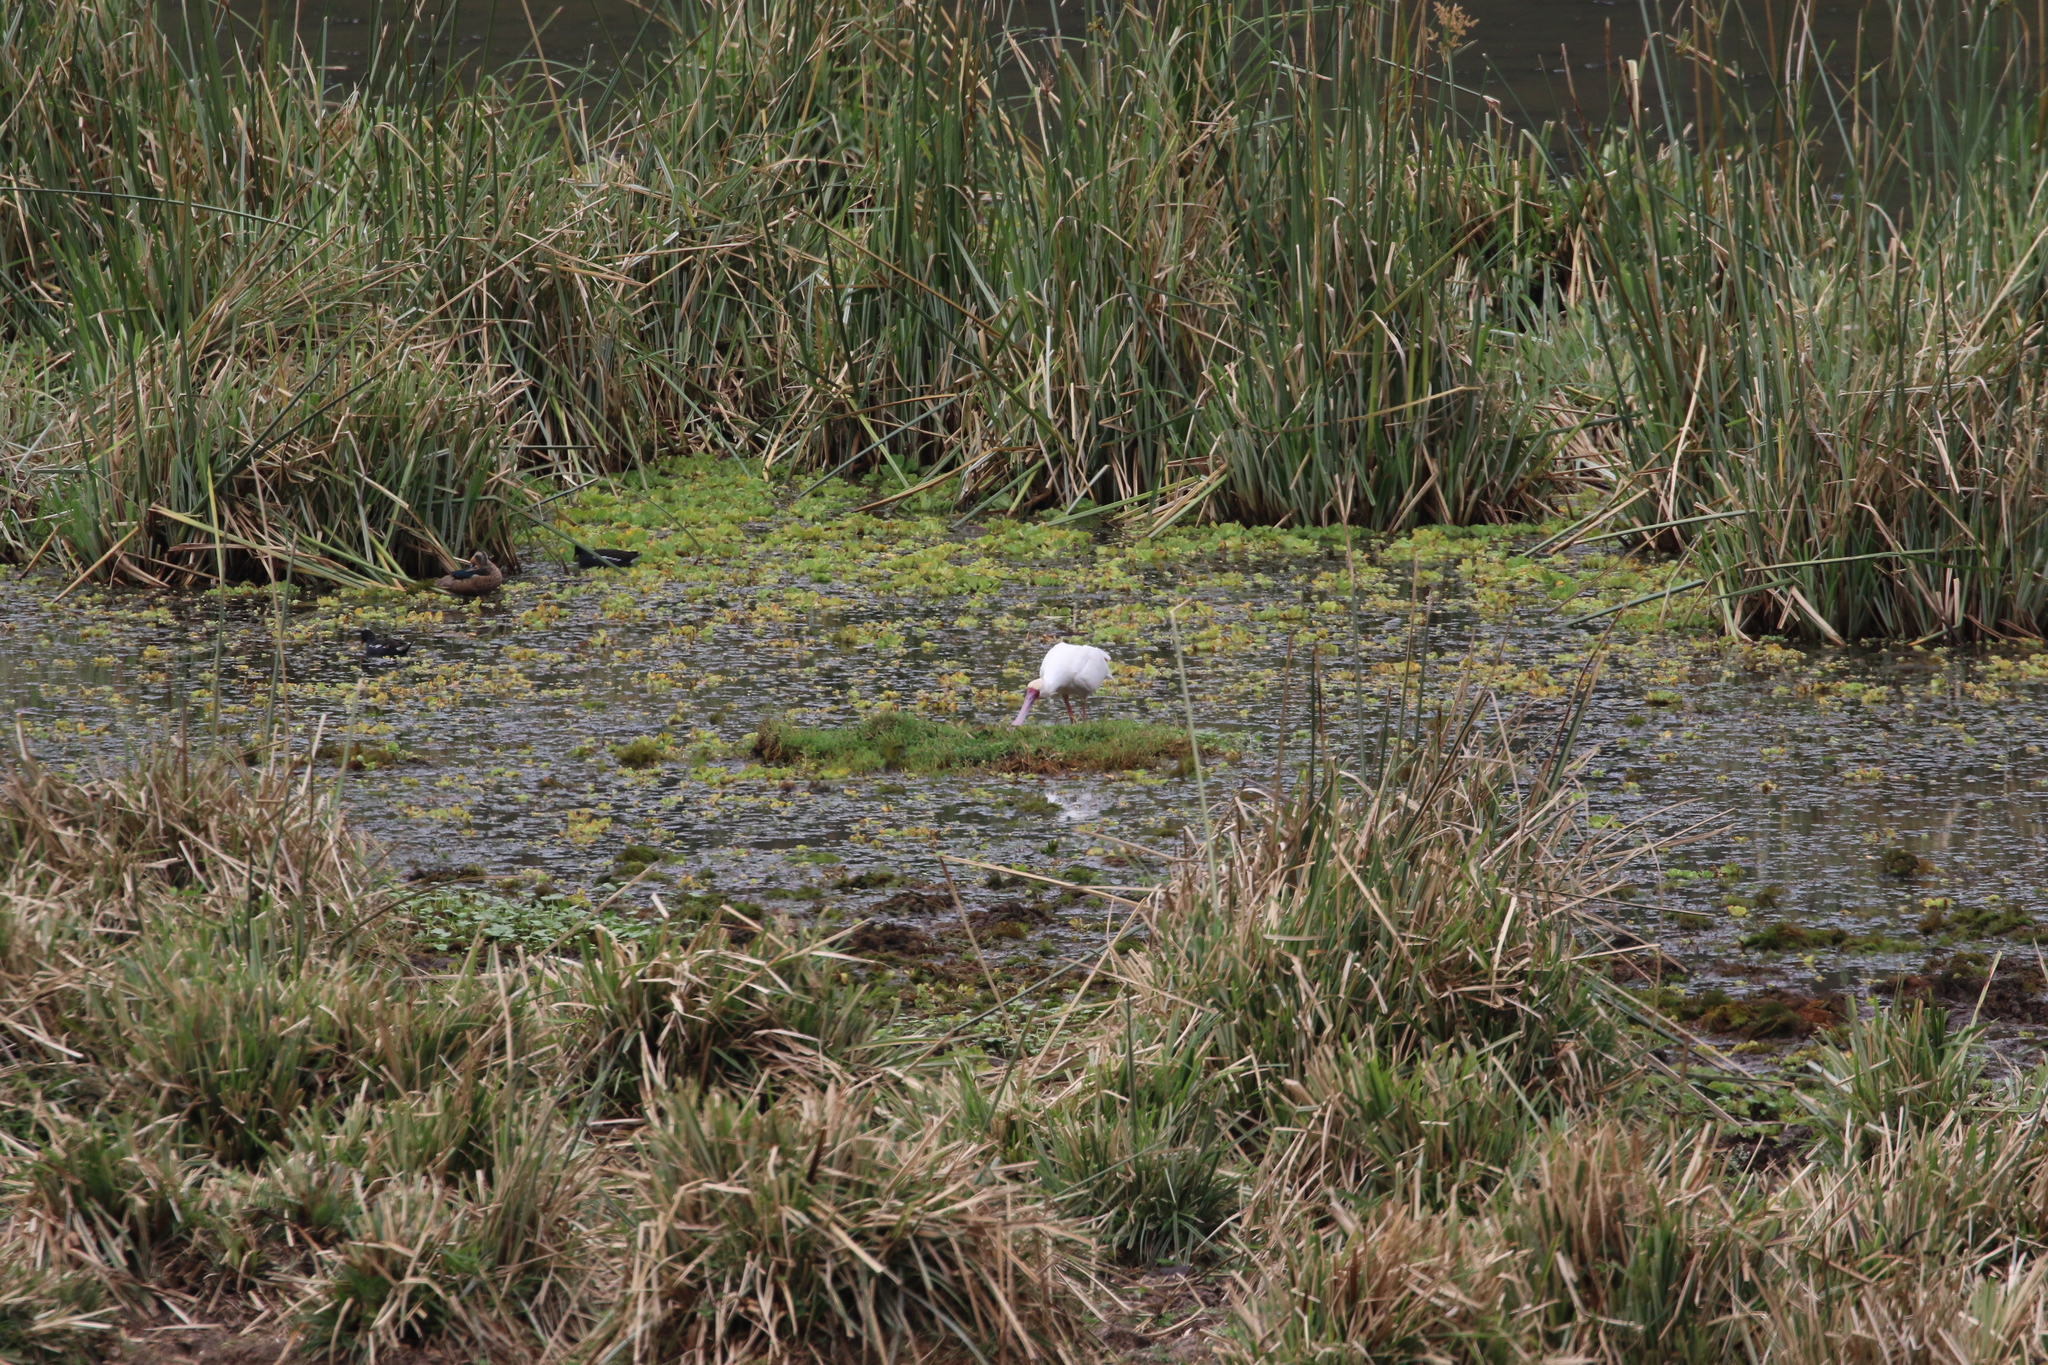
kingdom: Animalia
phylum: Chordata
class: Aves
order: Pelecaniformes
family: Threskiornithidae
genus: Platalea
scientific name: Platalea alba
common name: African spoonbill
